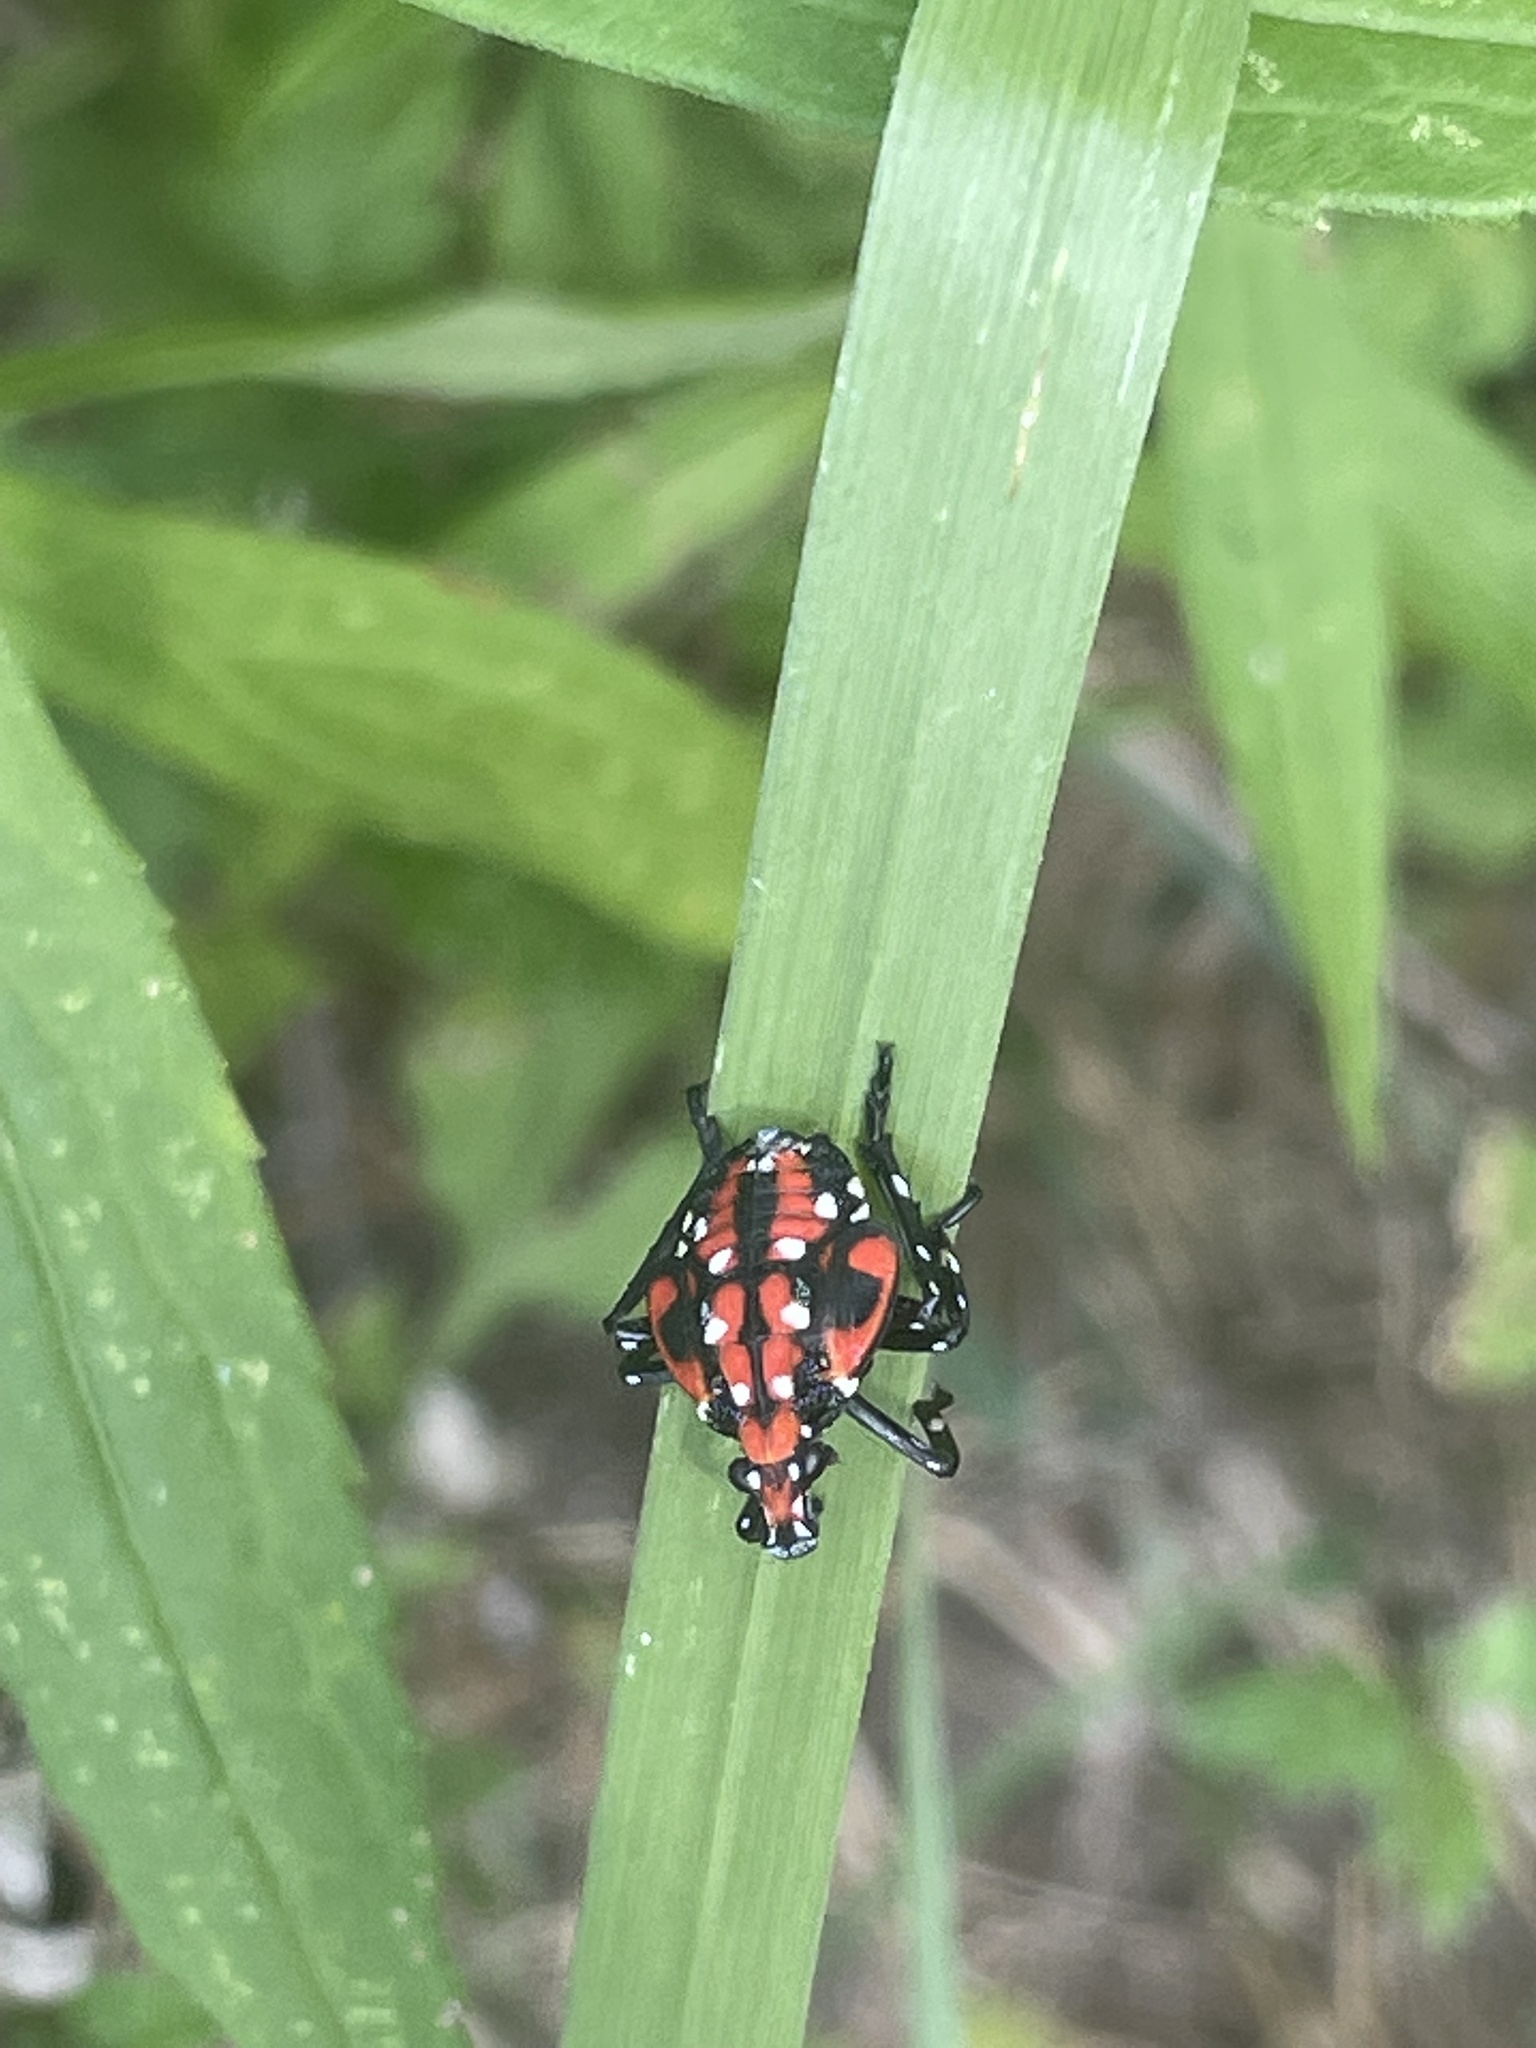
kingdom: Animalia
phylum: Arthropoda
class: Insecta
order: Hemiptera
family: Fulgoridae
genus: Lycorma
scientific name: Lycorma delicatula
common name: Spotted lanternfly
